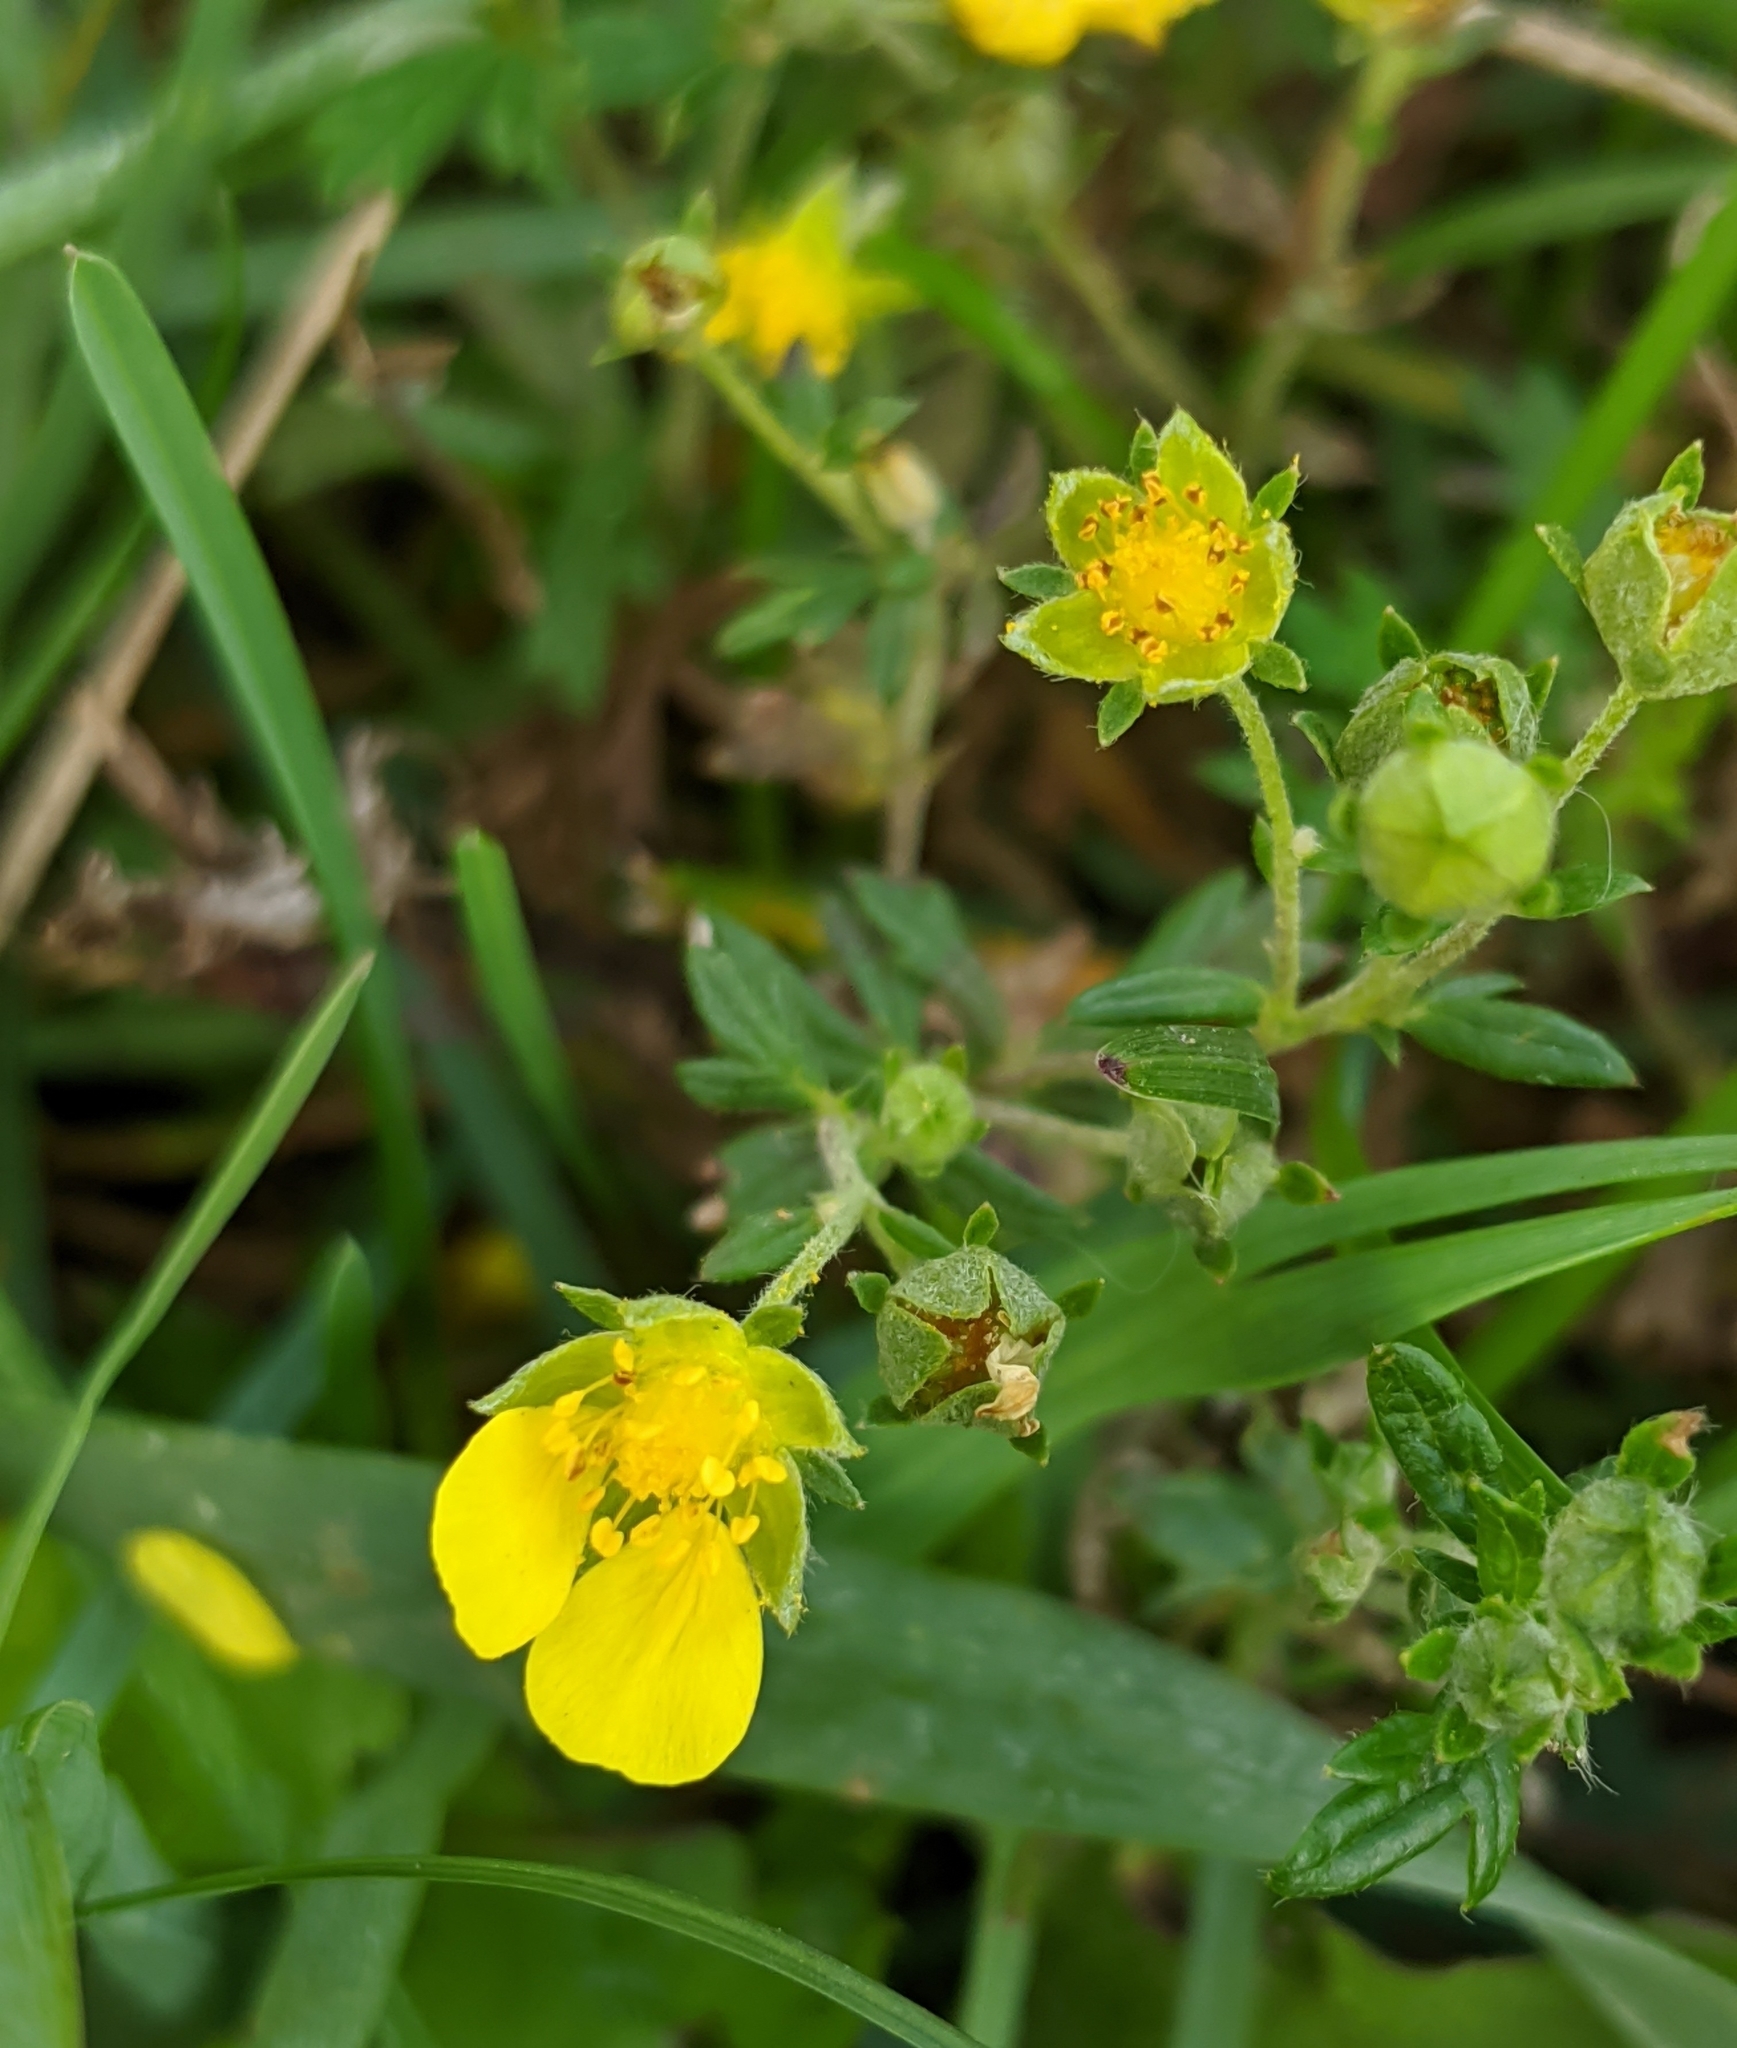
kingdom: Plantae
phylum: Tracheophyta
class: Magnoliopsida
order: Rosales
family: Rosaceae
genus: Potentilla
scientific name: Potentilla norvegica
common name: Ternate-leaved cinquefoil
